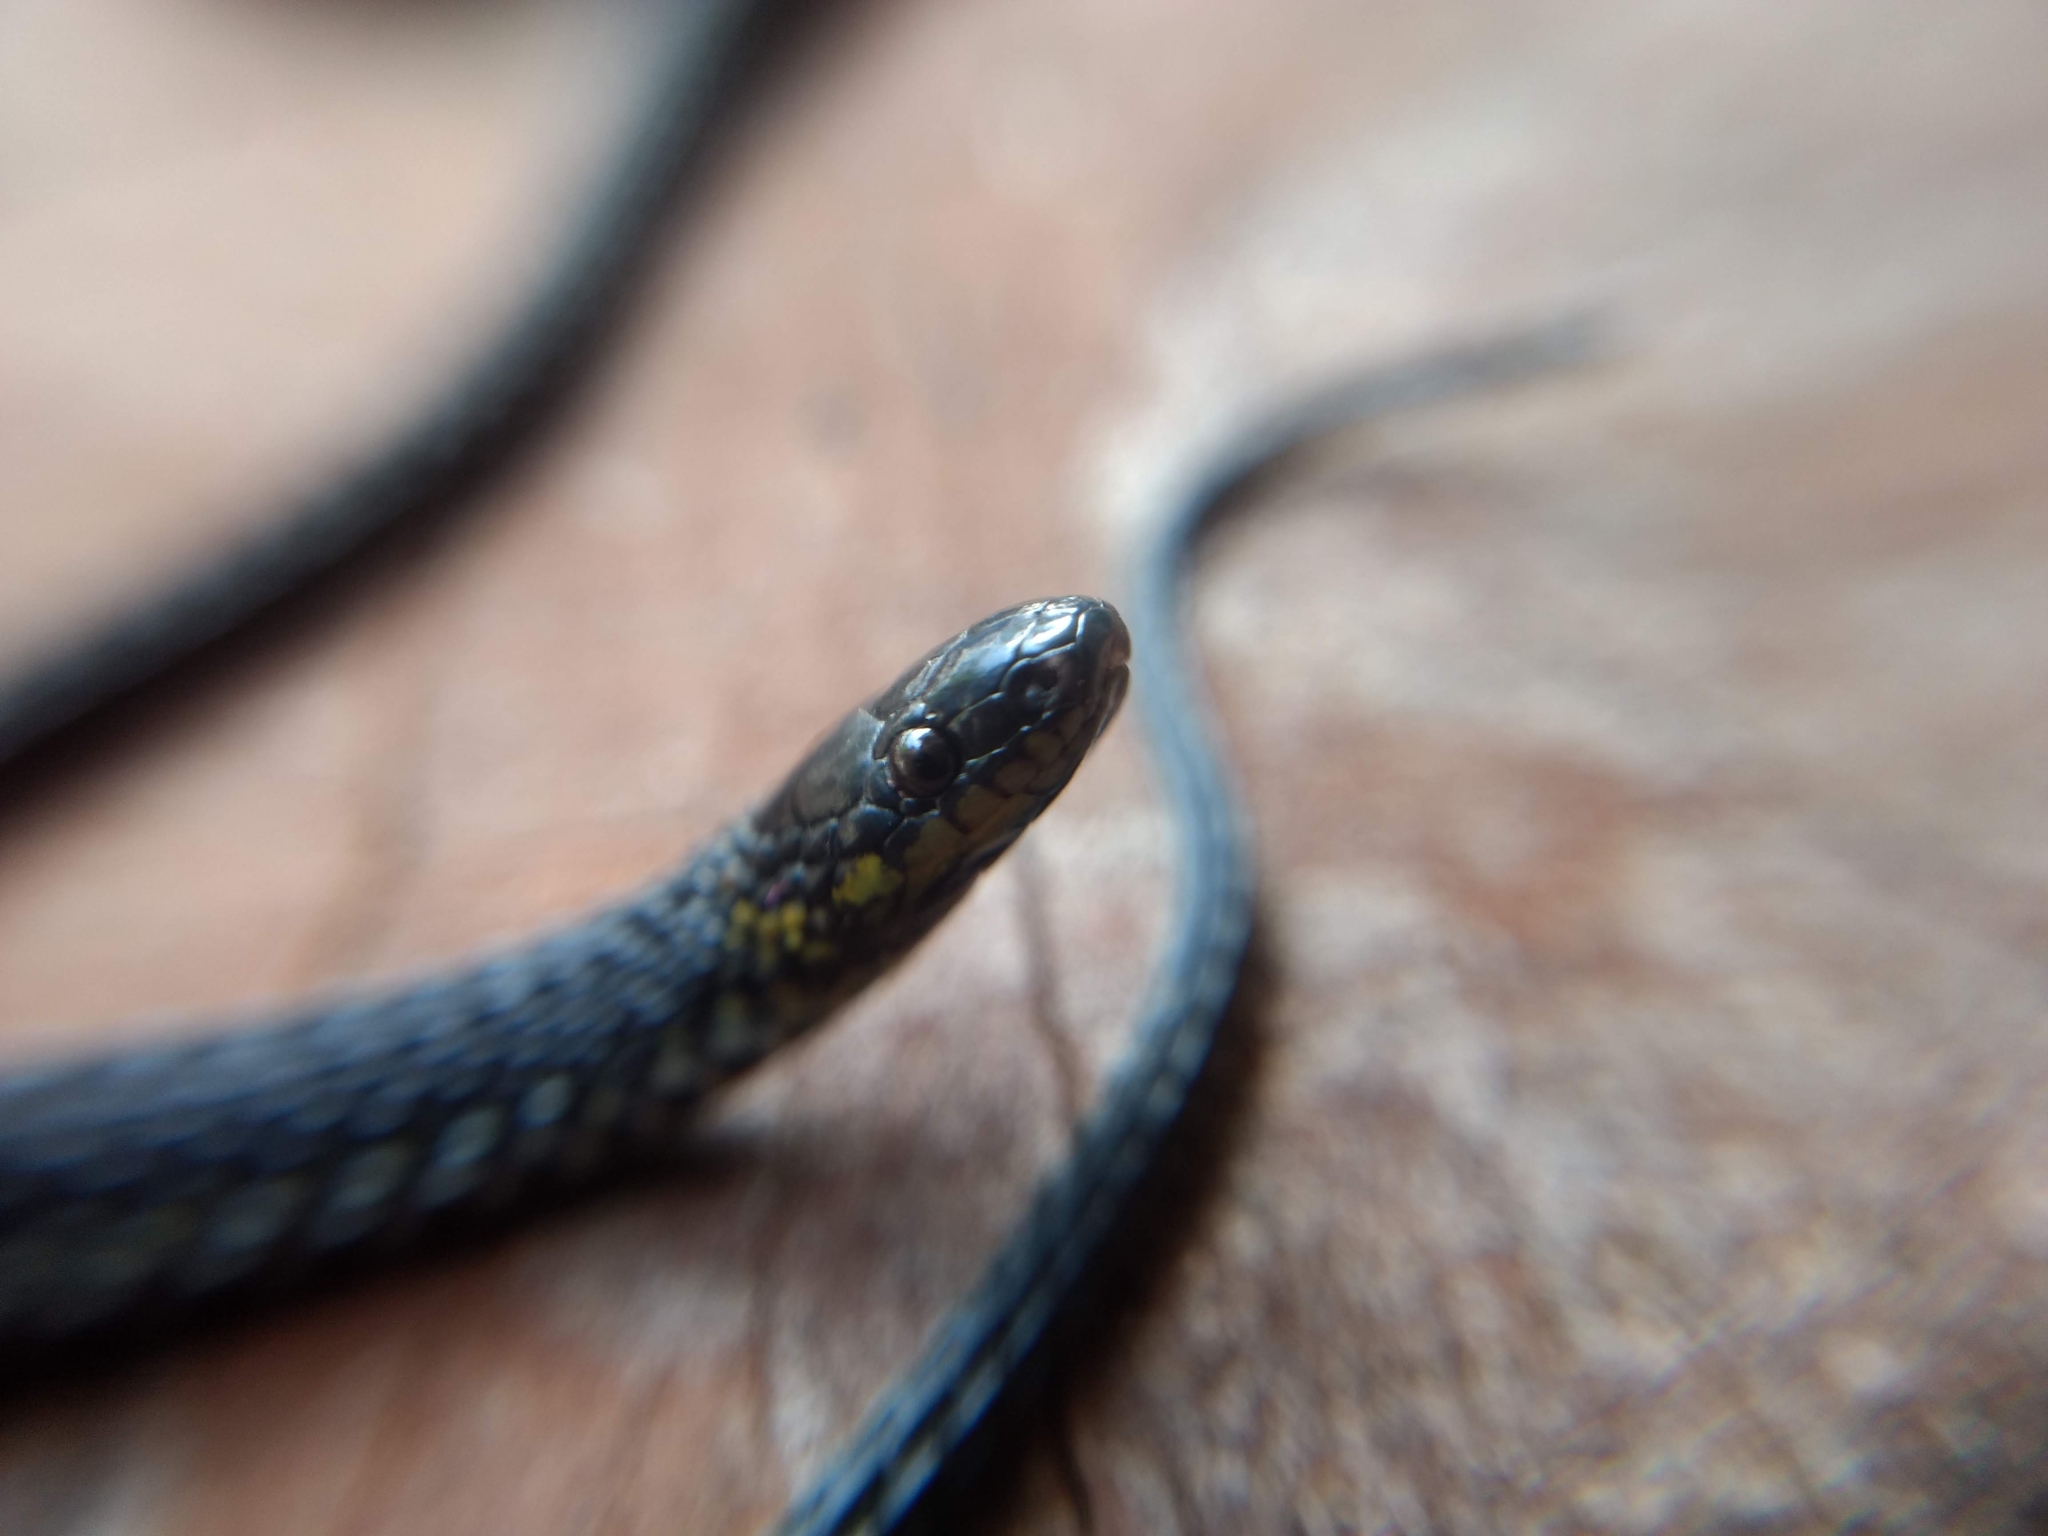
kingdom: Animalia
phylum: Chordata
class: Squamata
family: Colubridae
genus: Ninia
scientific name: Ninia diademata
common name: Ringneck coffee snake
